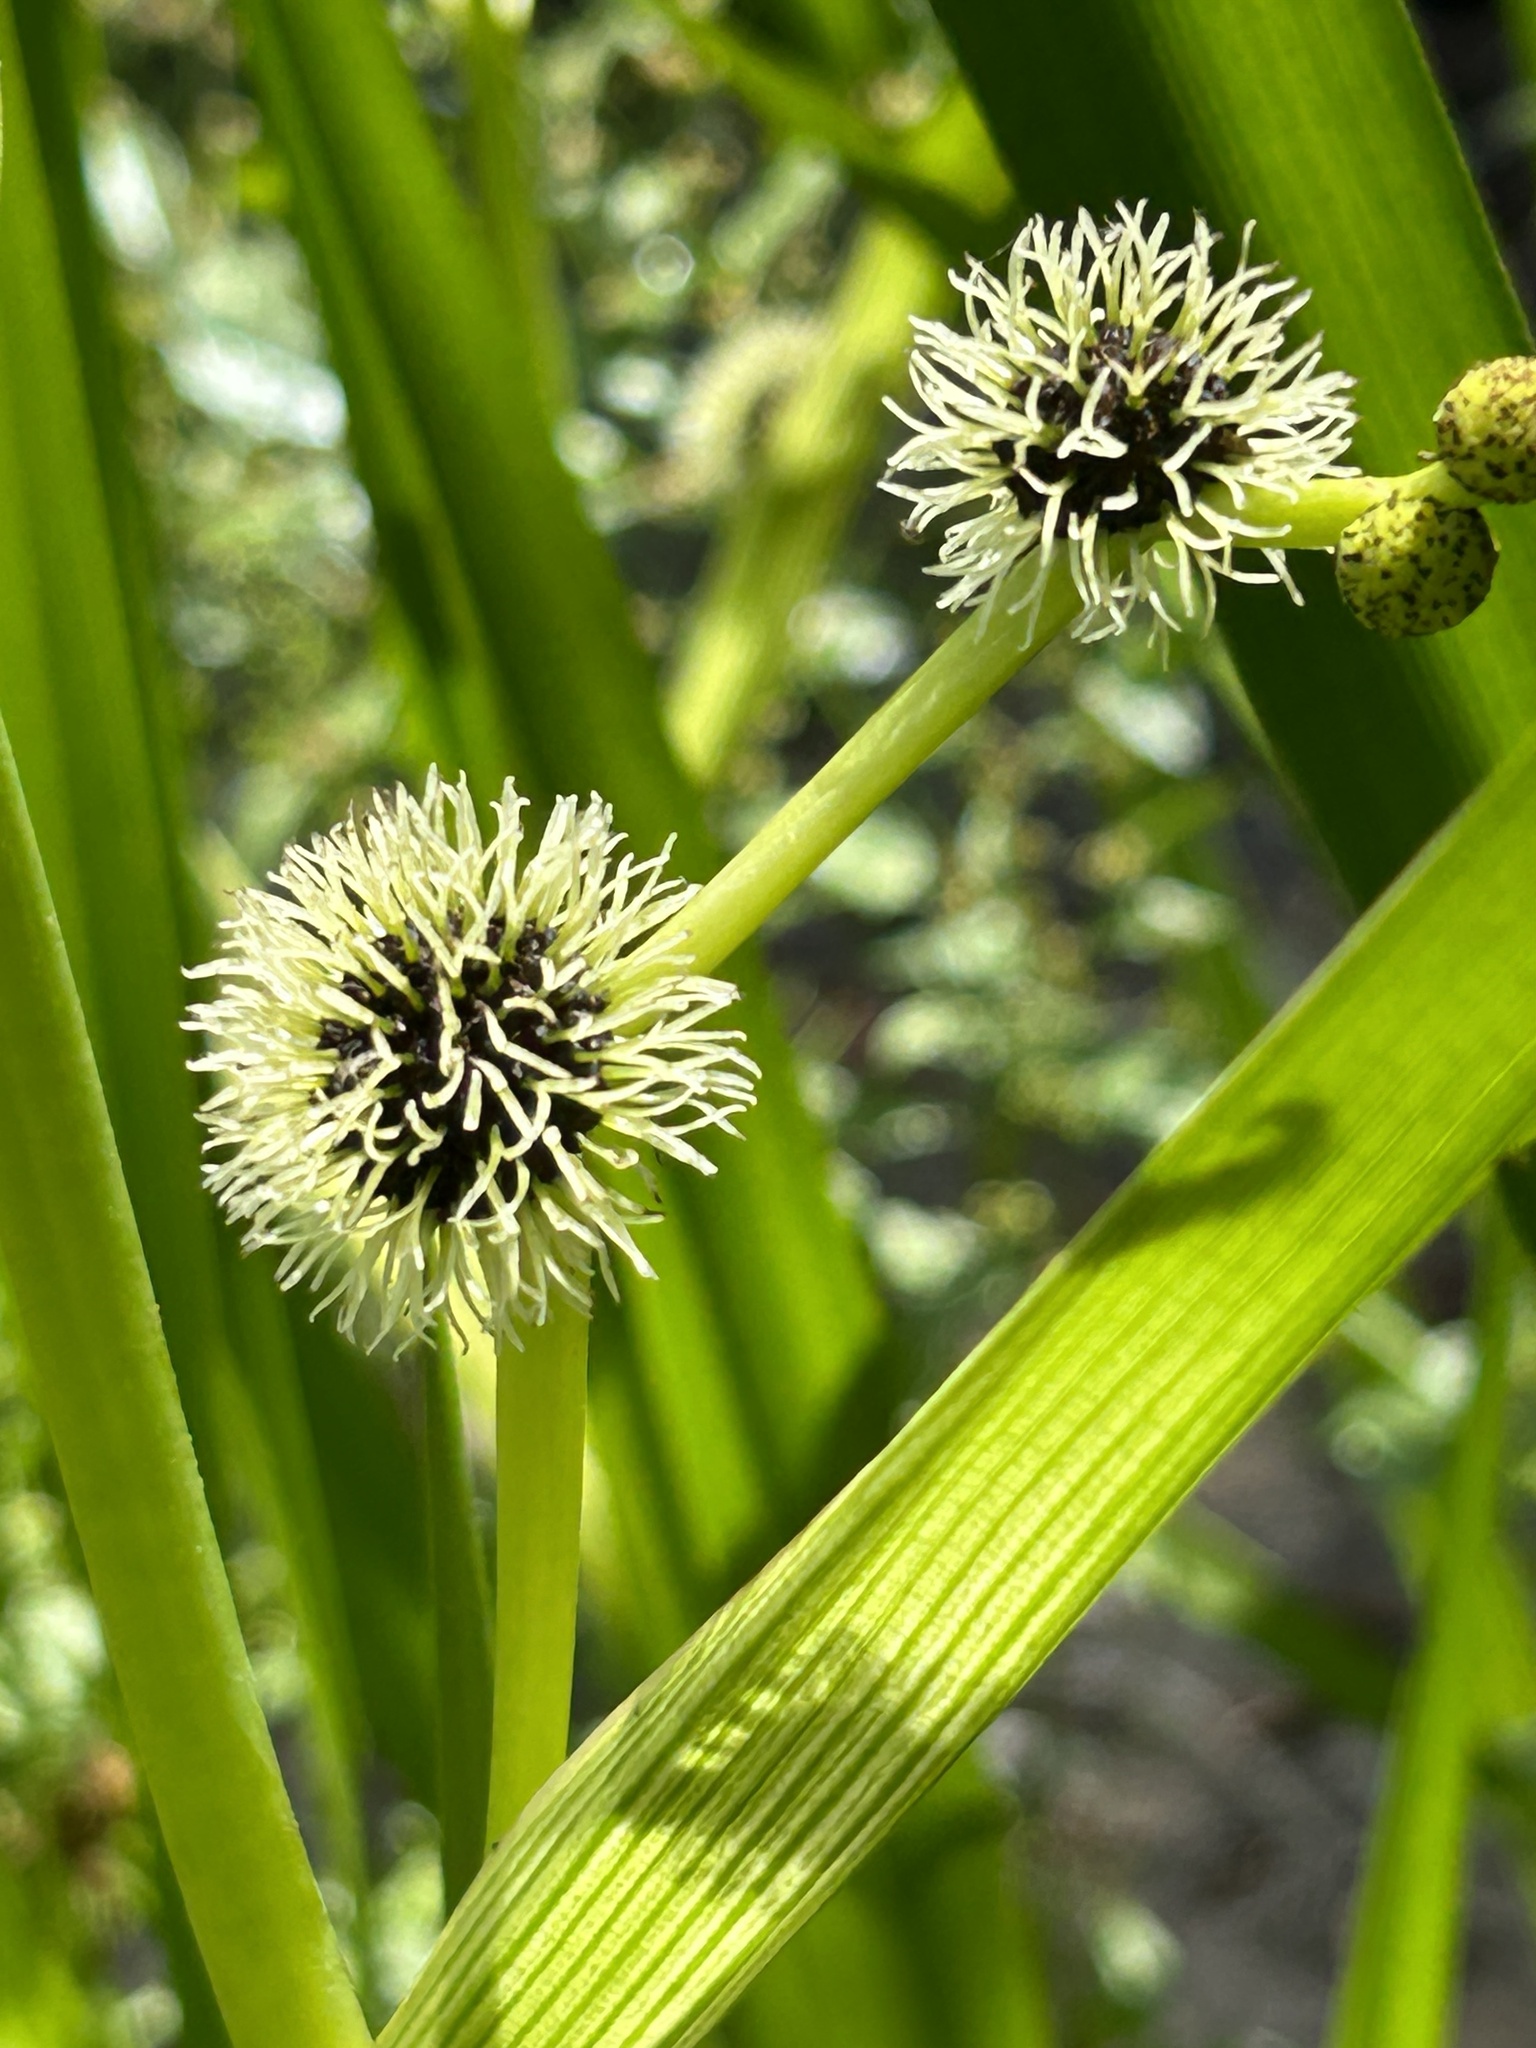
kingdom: Plantae
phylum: Tracheophyta
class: Liliopsida
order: Poales
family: Typhaceae
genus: Sparganium
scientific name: Sparganium eurycarpum
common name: Broad-fruited burreed
